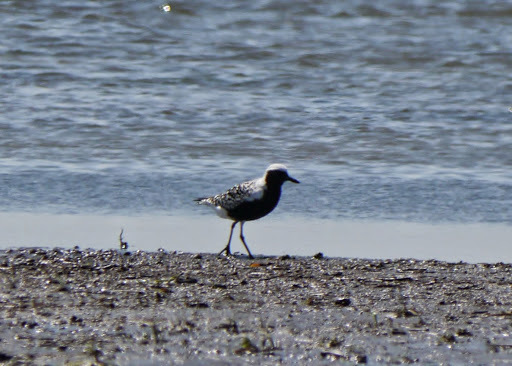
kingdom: Animalia
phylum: Chordata
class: Aves
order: Charadriiformes
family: Charadriidae
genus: Pluvialis
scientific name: Pluvialis squatarola
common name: Grey plover
